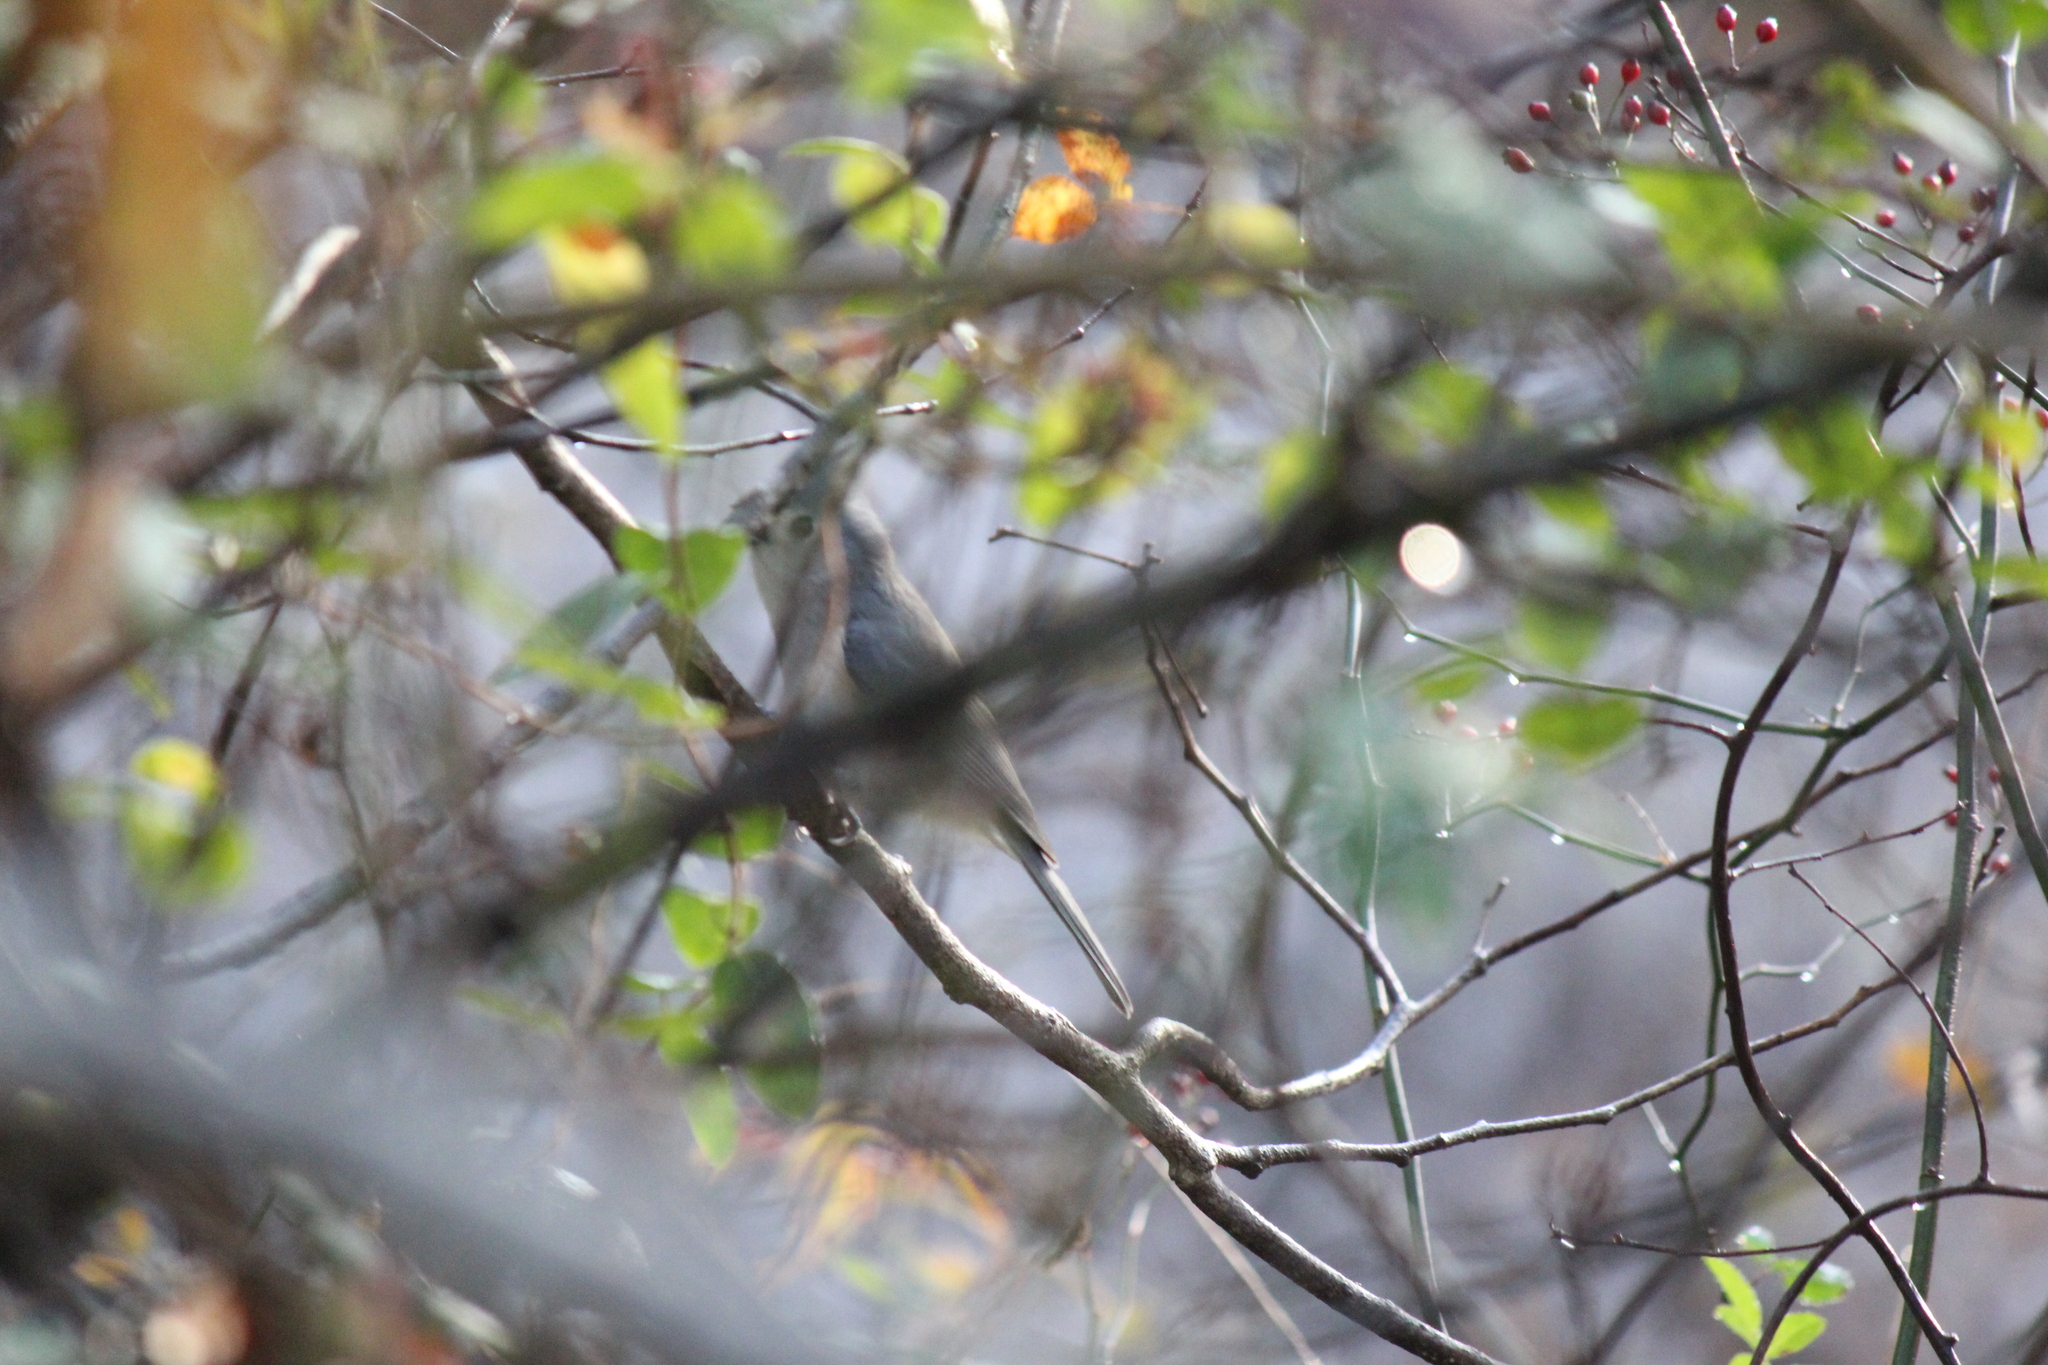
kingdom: Animalia
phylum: Chordata
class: Aves
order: Passeriformes
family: Paridae
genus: Baeolophus
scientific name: Baeolophus bicolor
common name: Tufted titmouse
